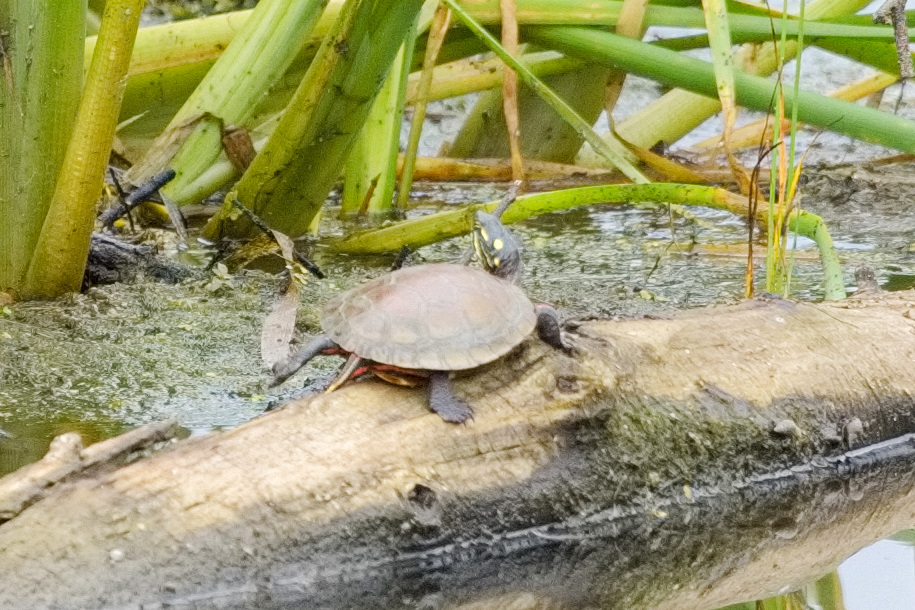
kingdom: Animalia
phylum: Chordata
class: Testudines
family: Emydidae
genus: Chrysemys
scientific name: Chrysemys picta
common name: Painted turtle
